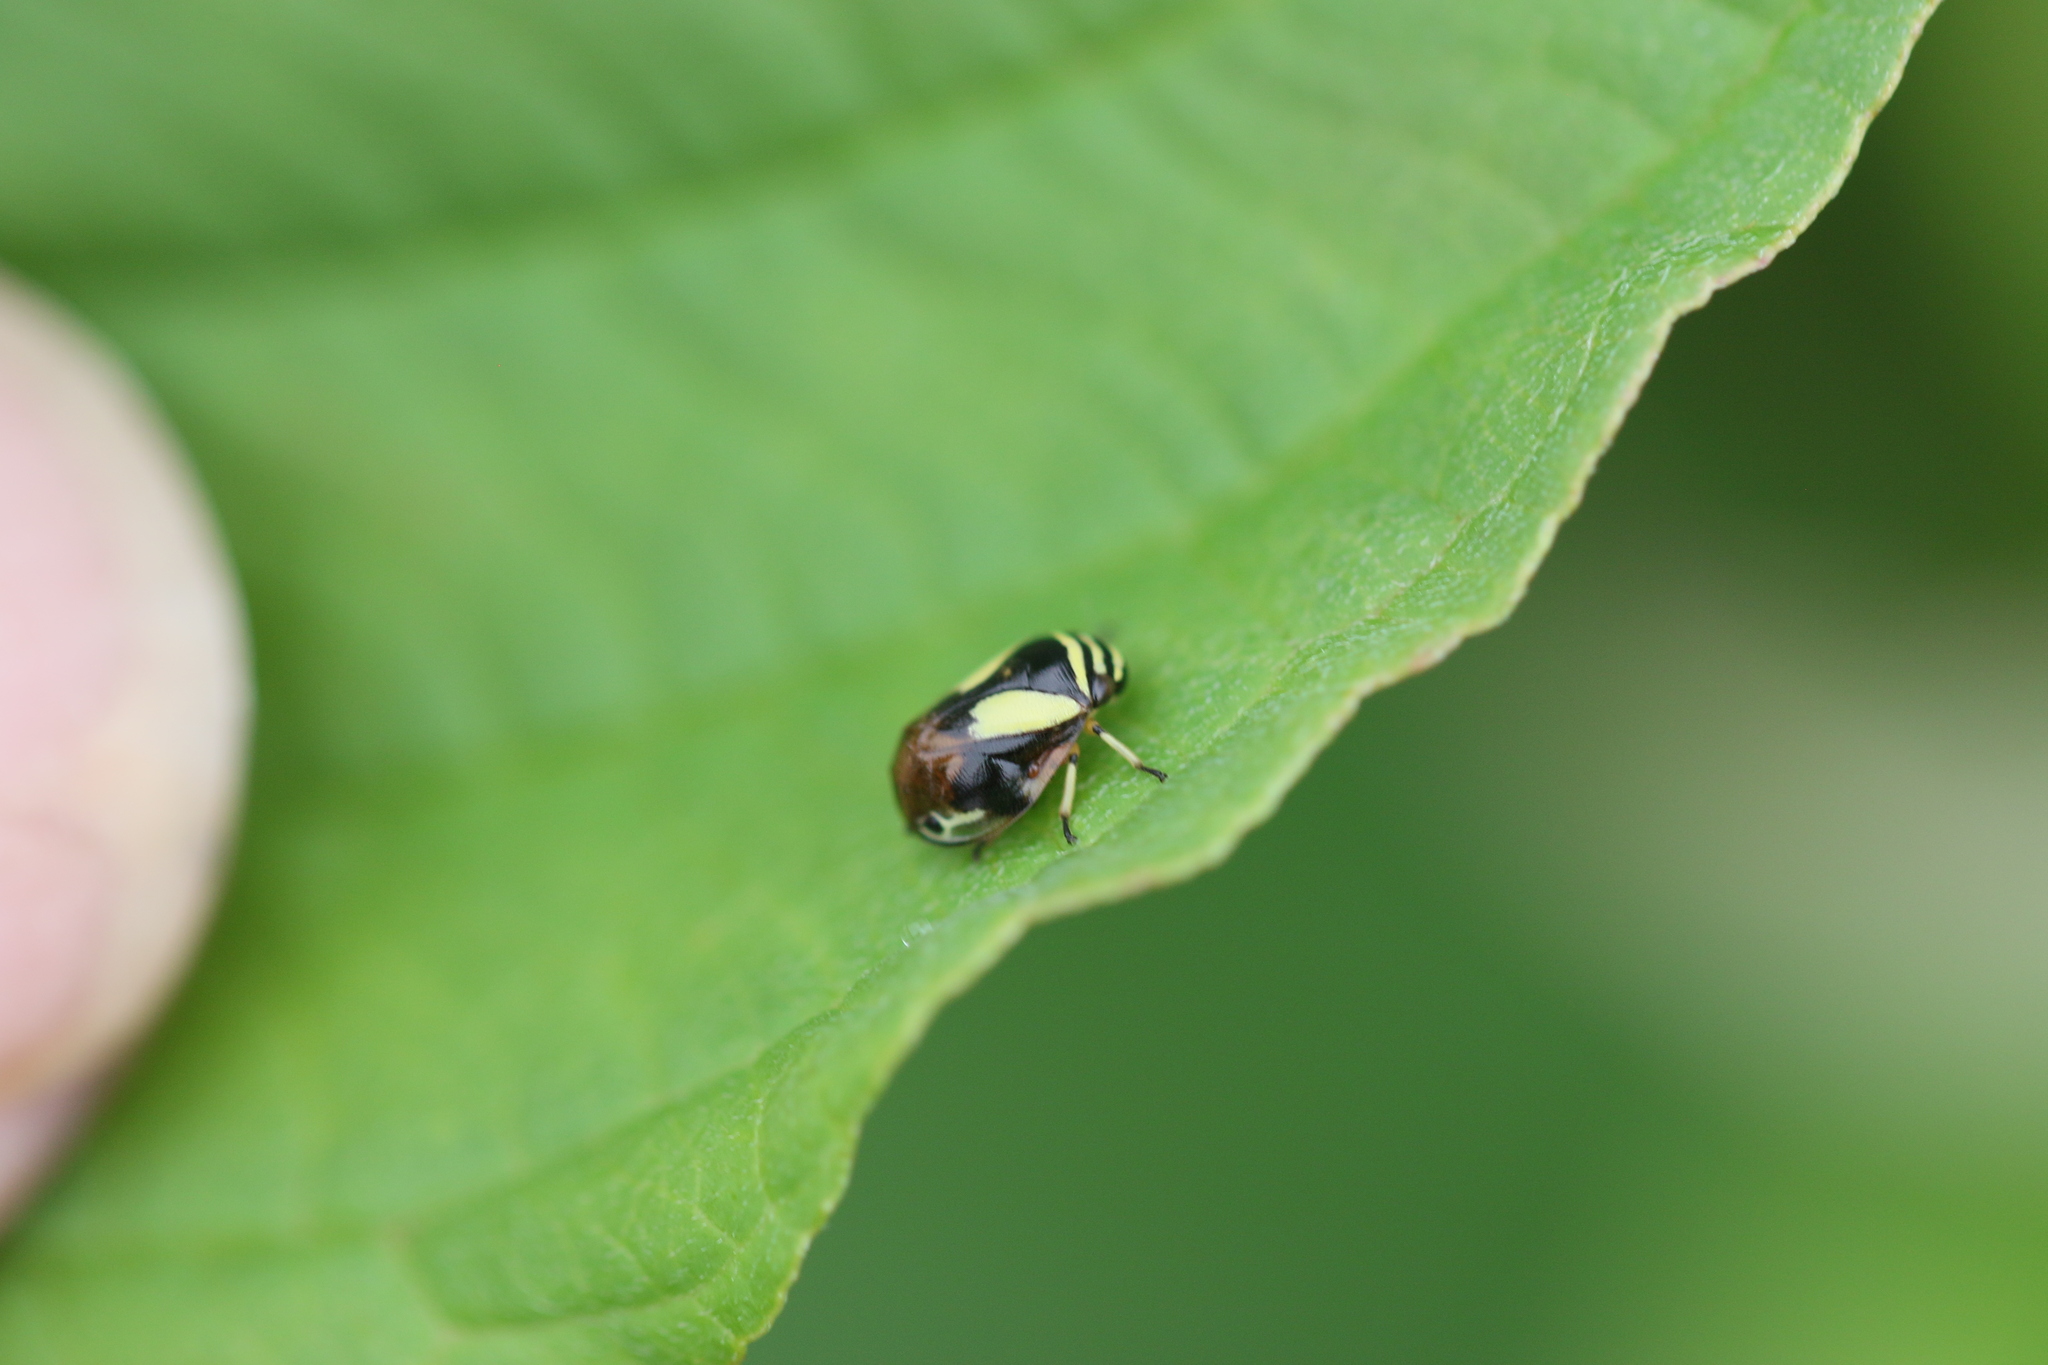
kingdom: Animalia
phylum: Arthropoda
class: Insecta
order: Hemiptera
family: Clastopteridae
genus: Clastoptera
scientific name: Clastoptera proteus
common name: Dogwood spittlebug
